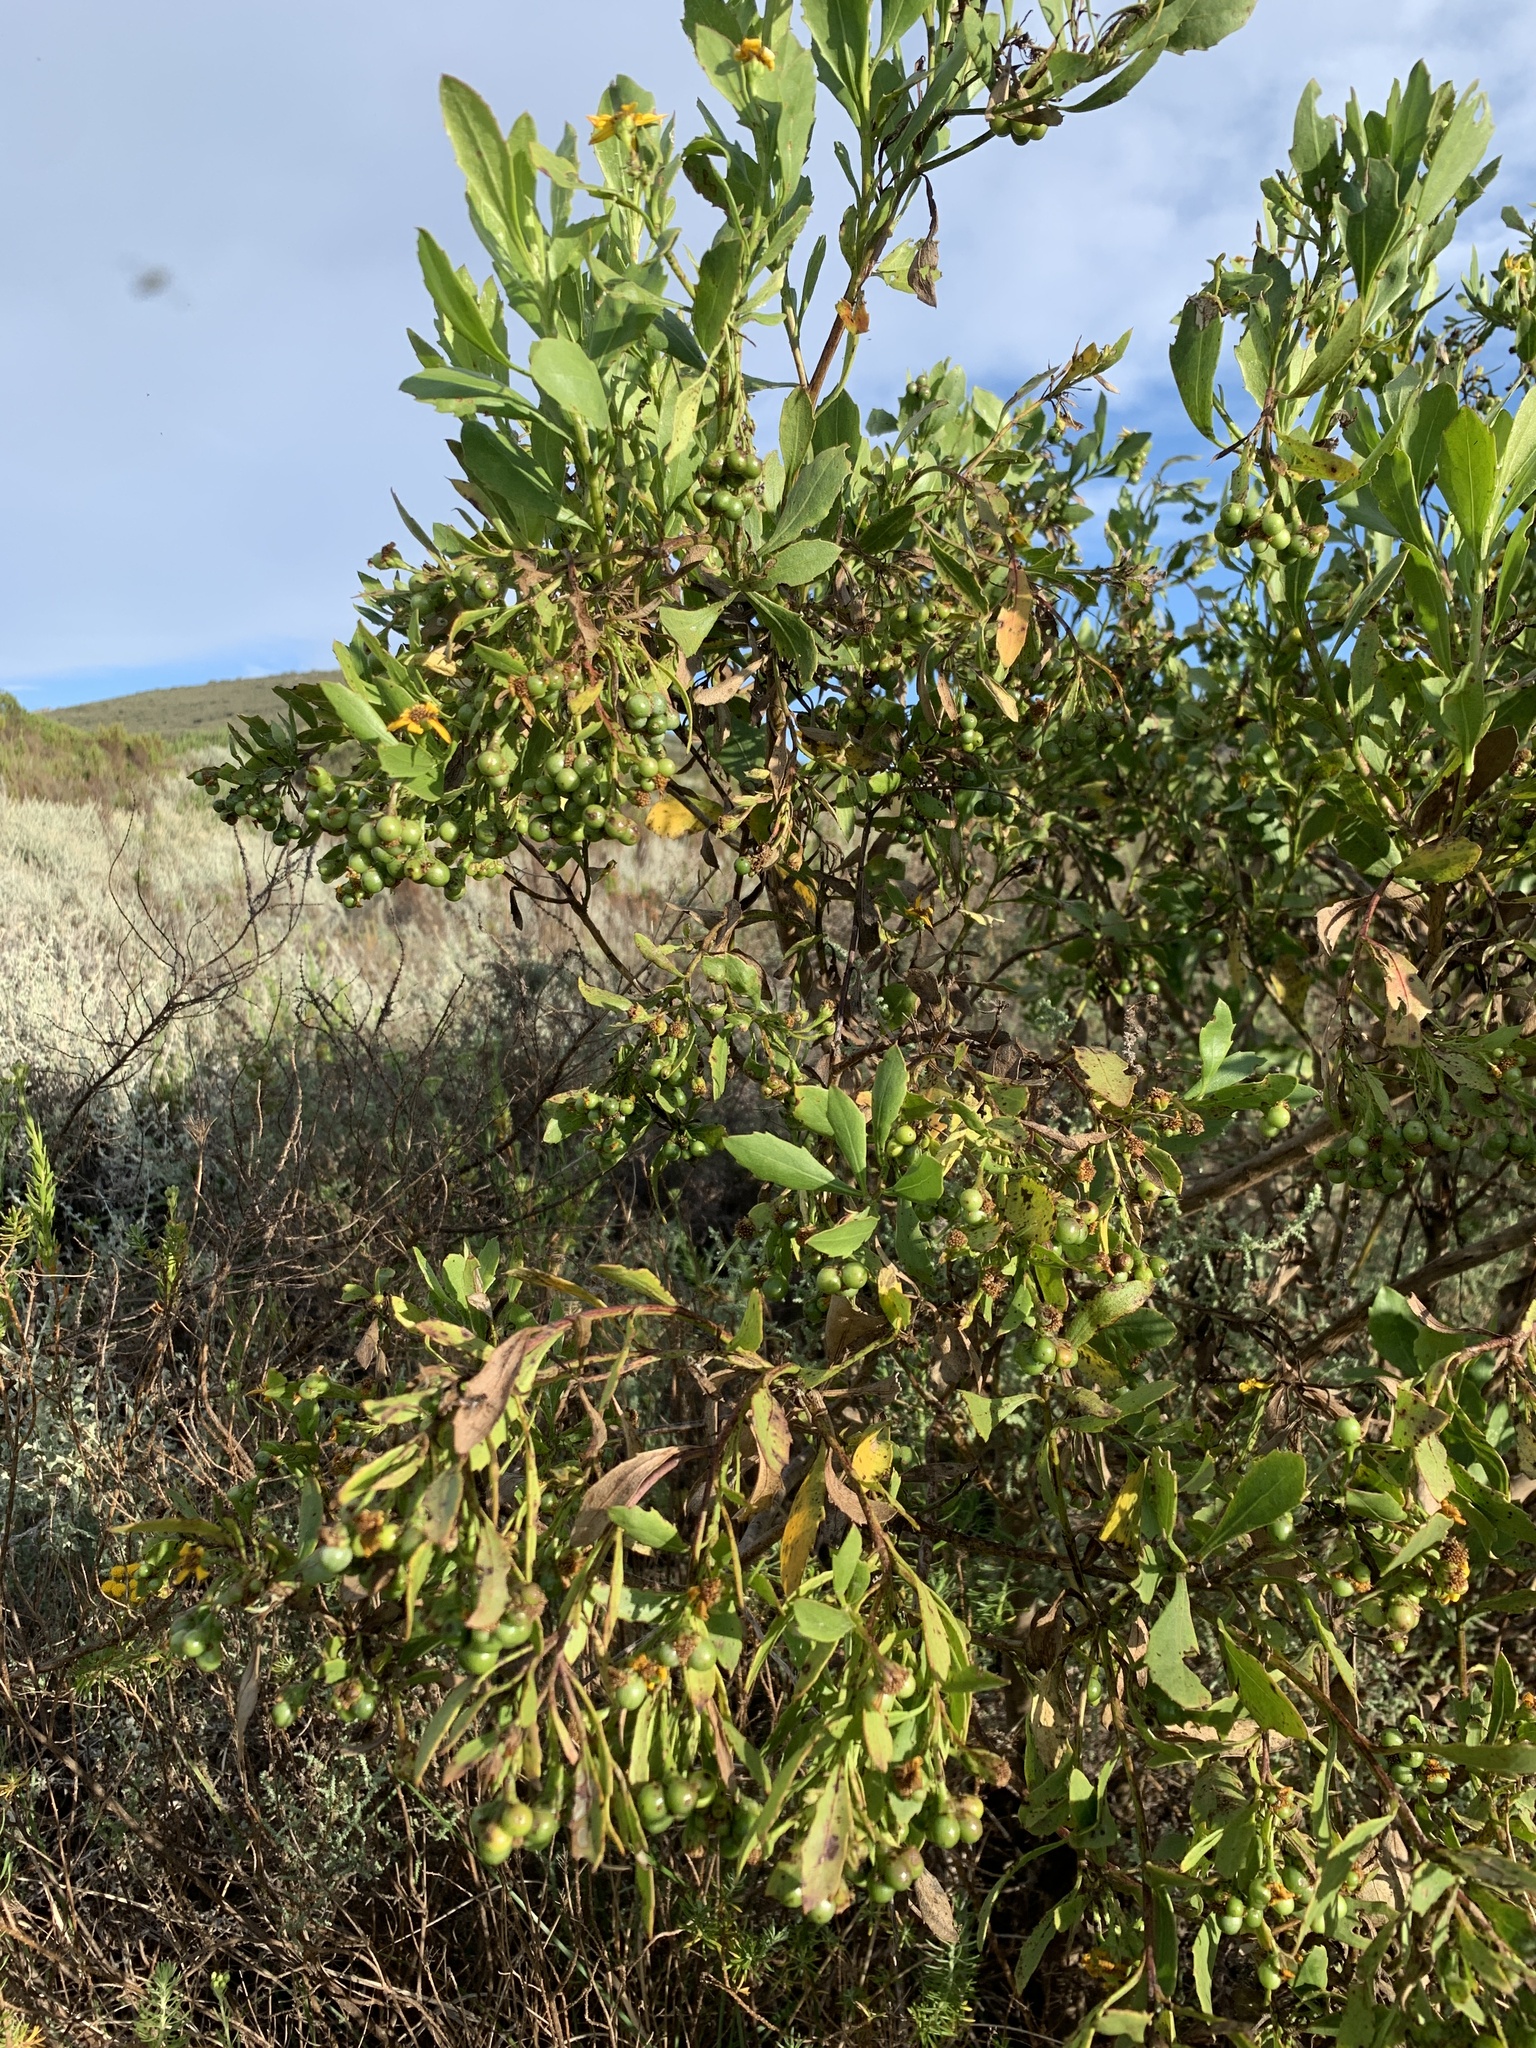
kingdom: Plantae
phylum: Tracheophyta
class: Magnoliopsida
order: Asterales
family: Asteraceae
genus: Osteospermum
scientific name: Osteospermum moniliferum
